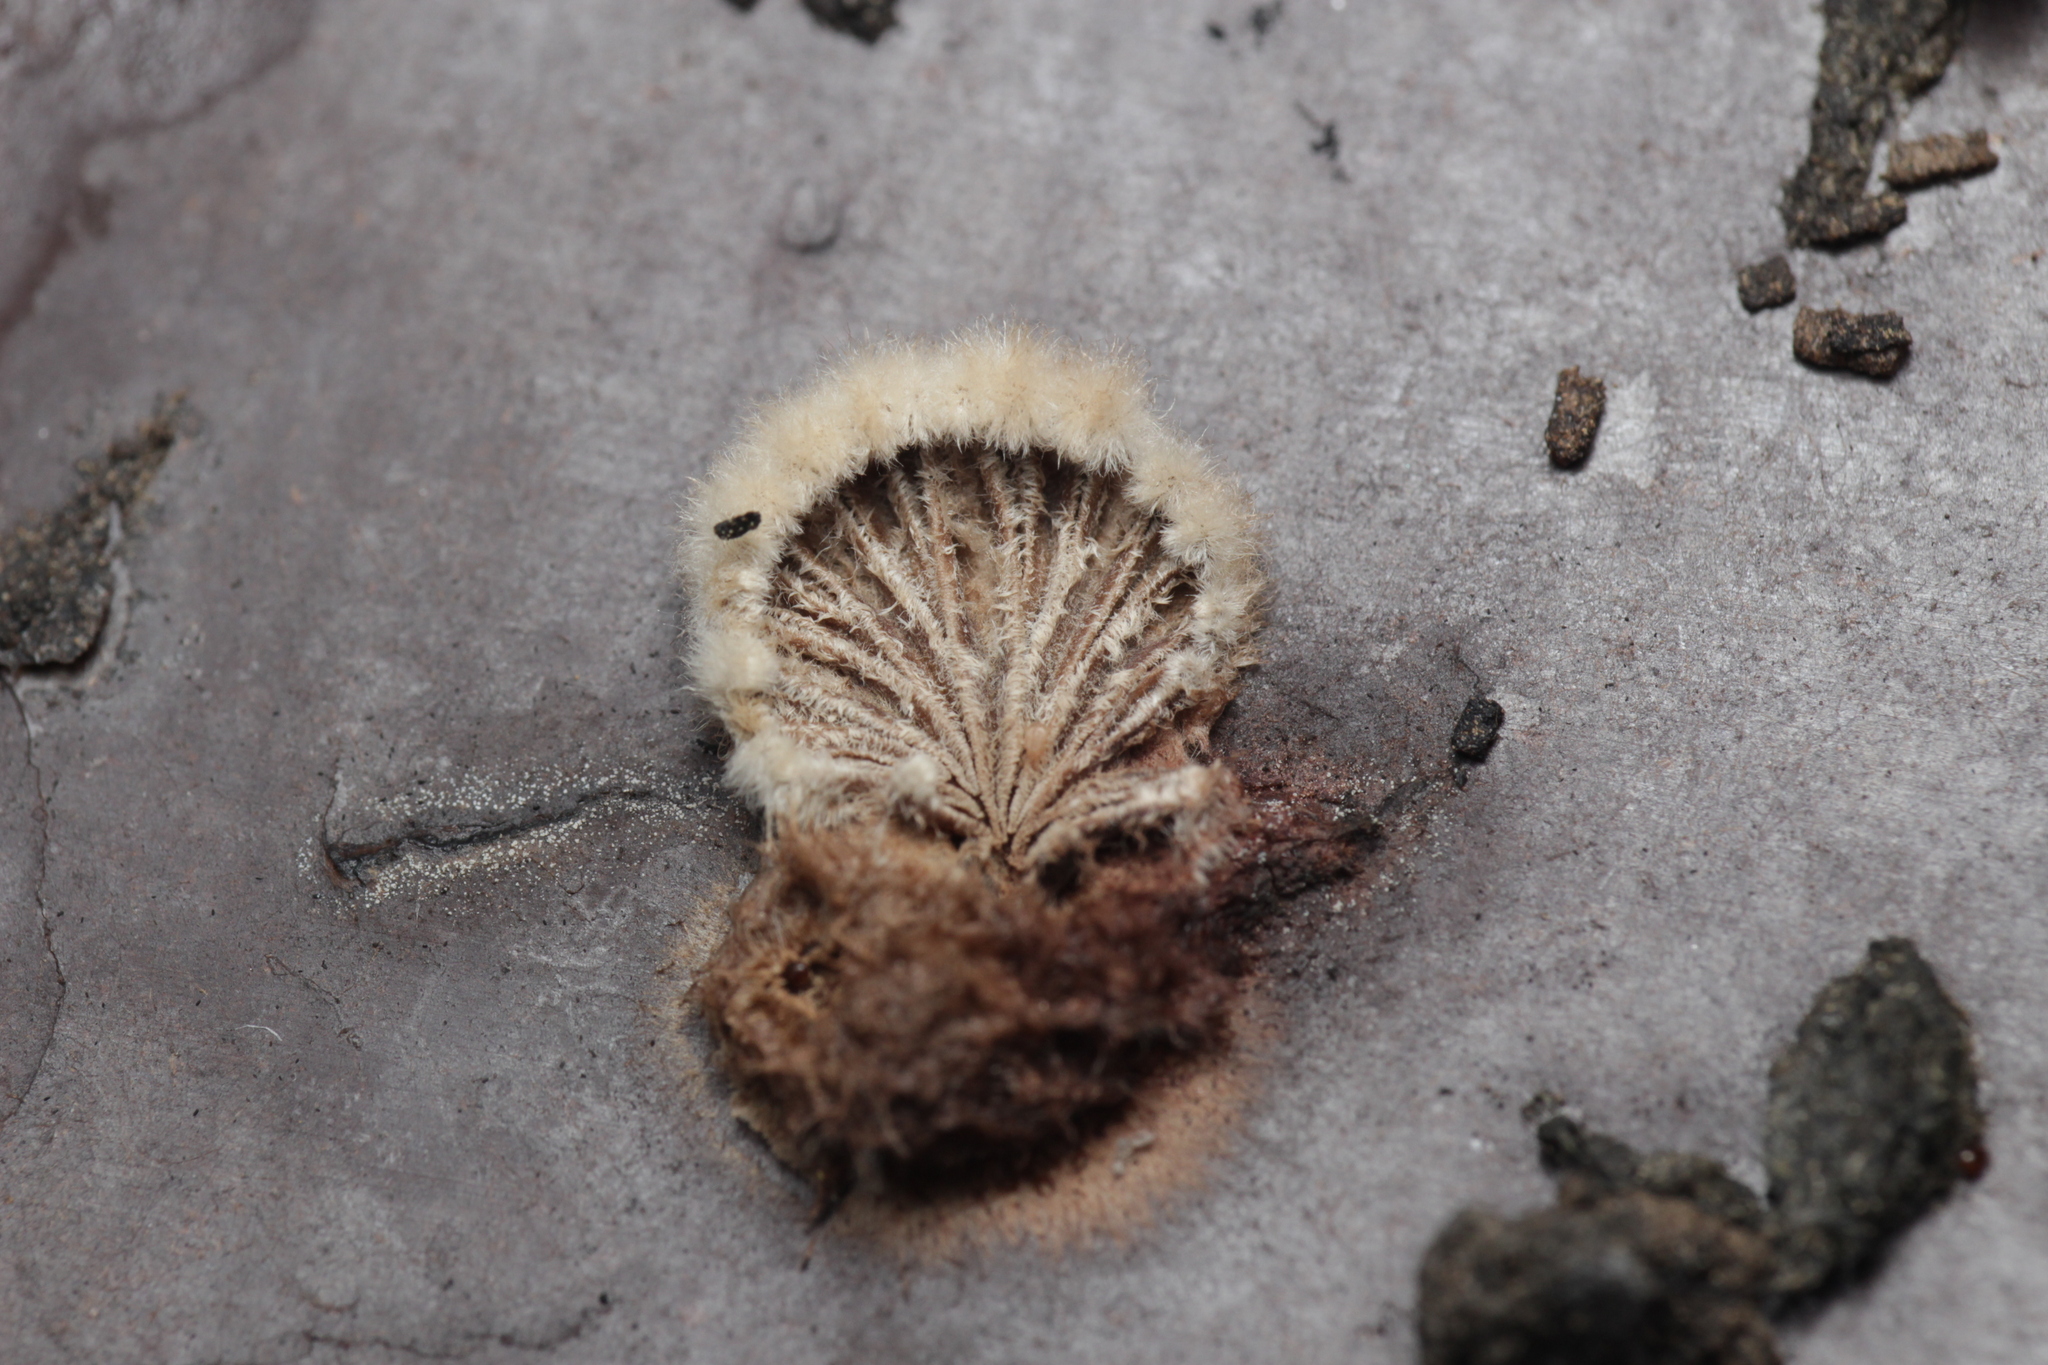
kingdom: Fungi
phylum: Basidiomycota
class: Agaricomycetes
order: Agaricales
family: Schizophyllaceae
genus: Schizophyllum
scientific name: Schizophyllum commune
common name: Common porecrust
